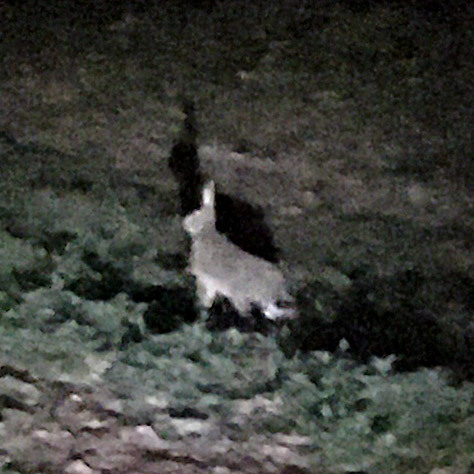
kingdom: Animalia
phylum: Chordata
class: Mammalia
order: Lagomorpha
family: Leporidae
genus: Lepus
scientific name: Lepus europaeus
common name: European hare
